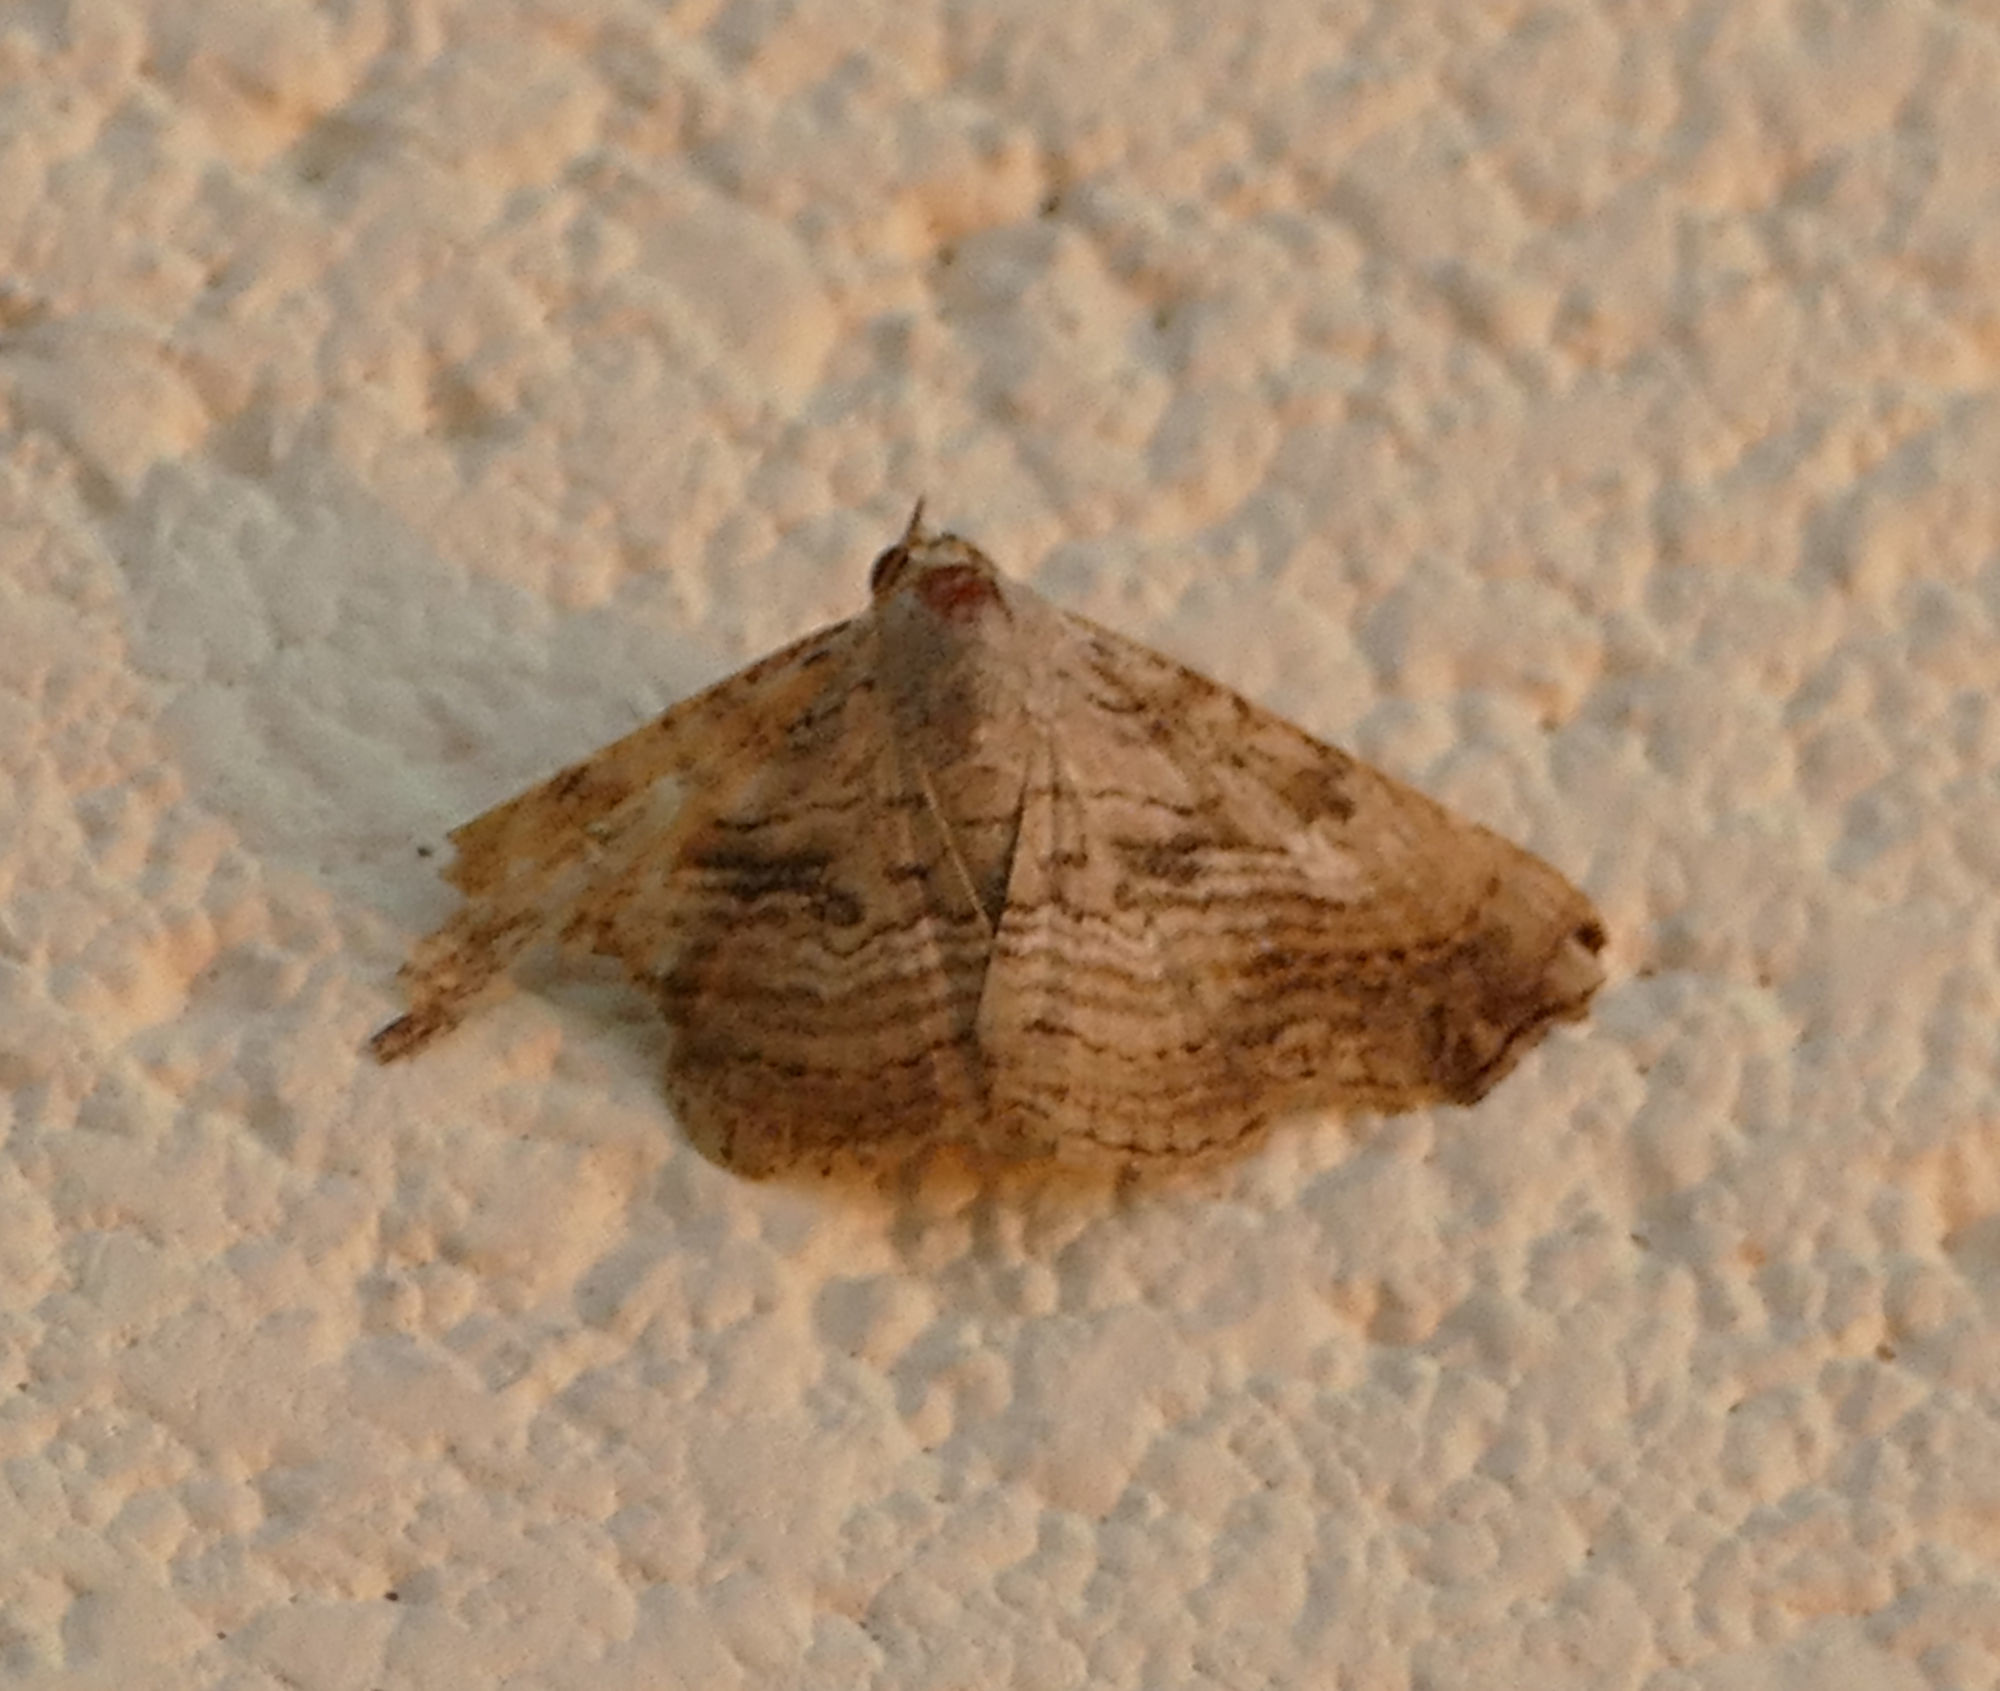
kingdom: Animalia
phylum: Arthropoda
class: Insecta
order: Lepidoptera
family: Erebidae
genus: Tyrissa
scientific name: Tyrissa multilinea
